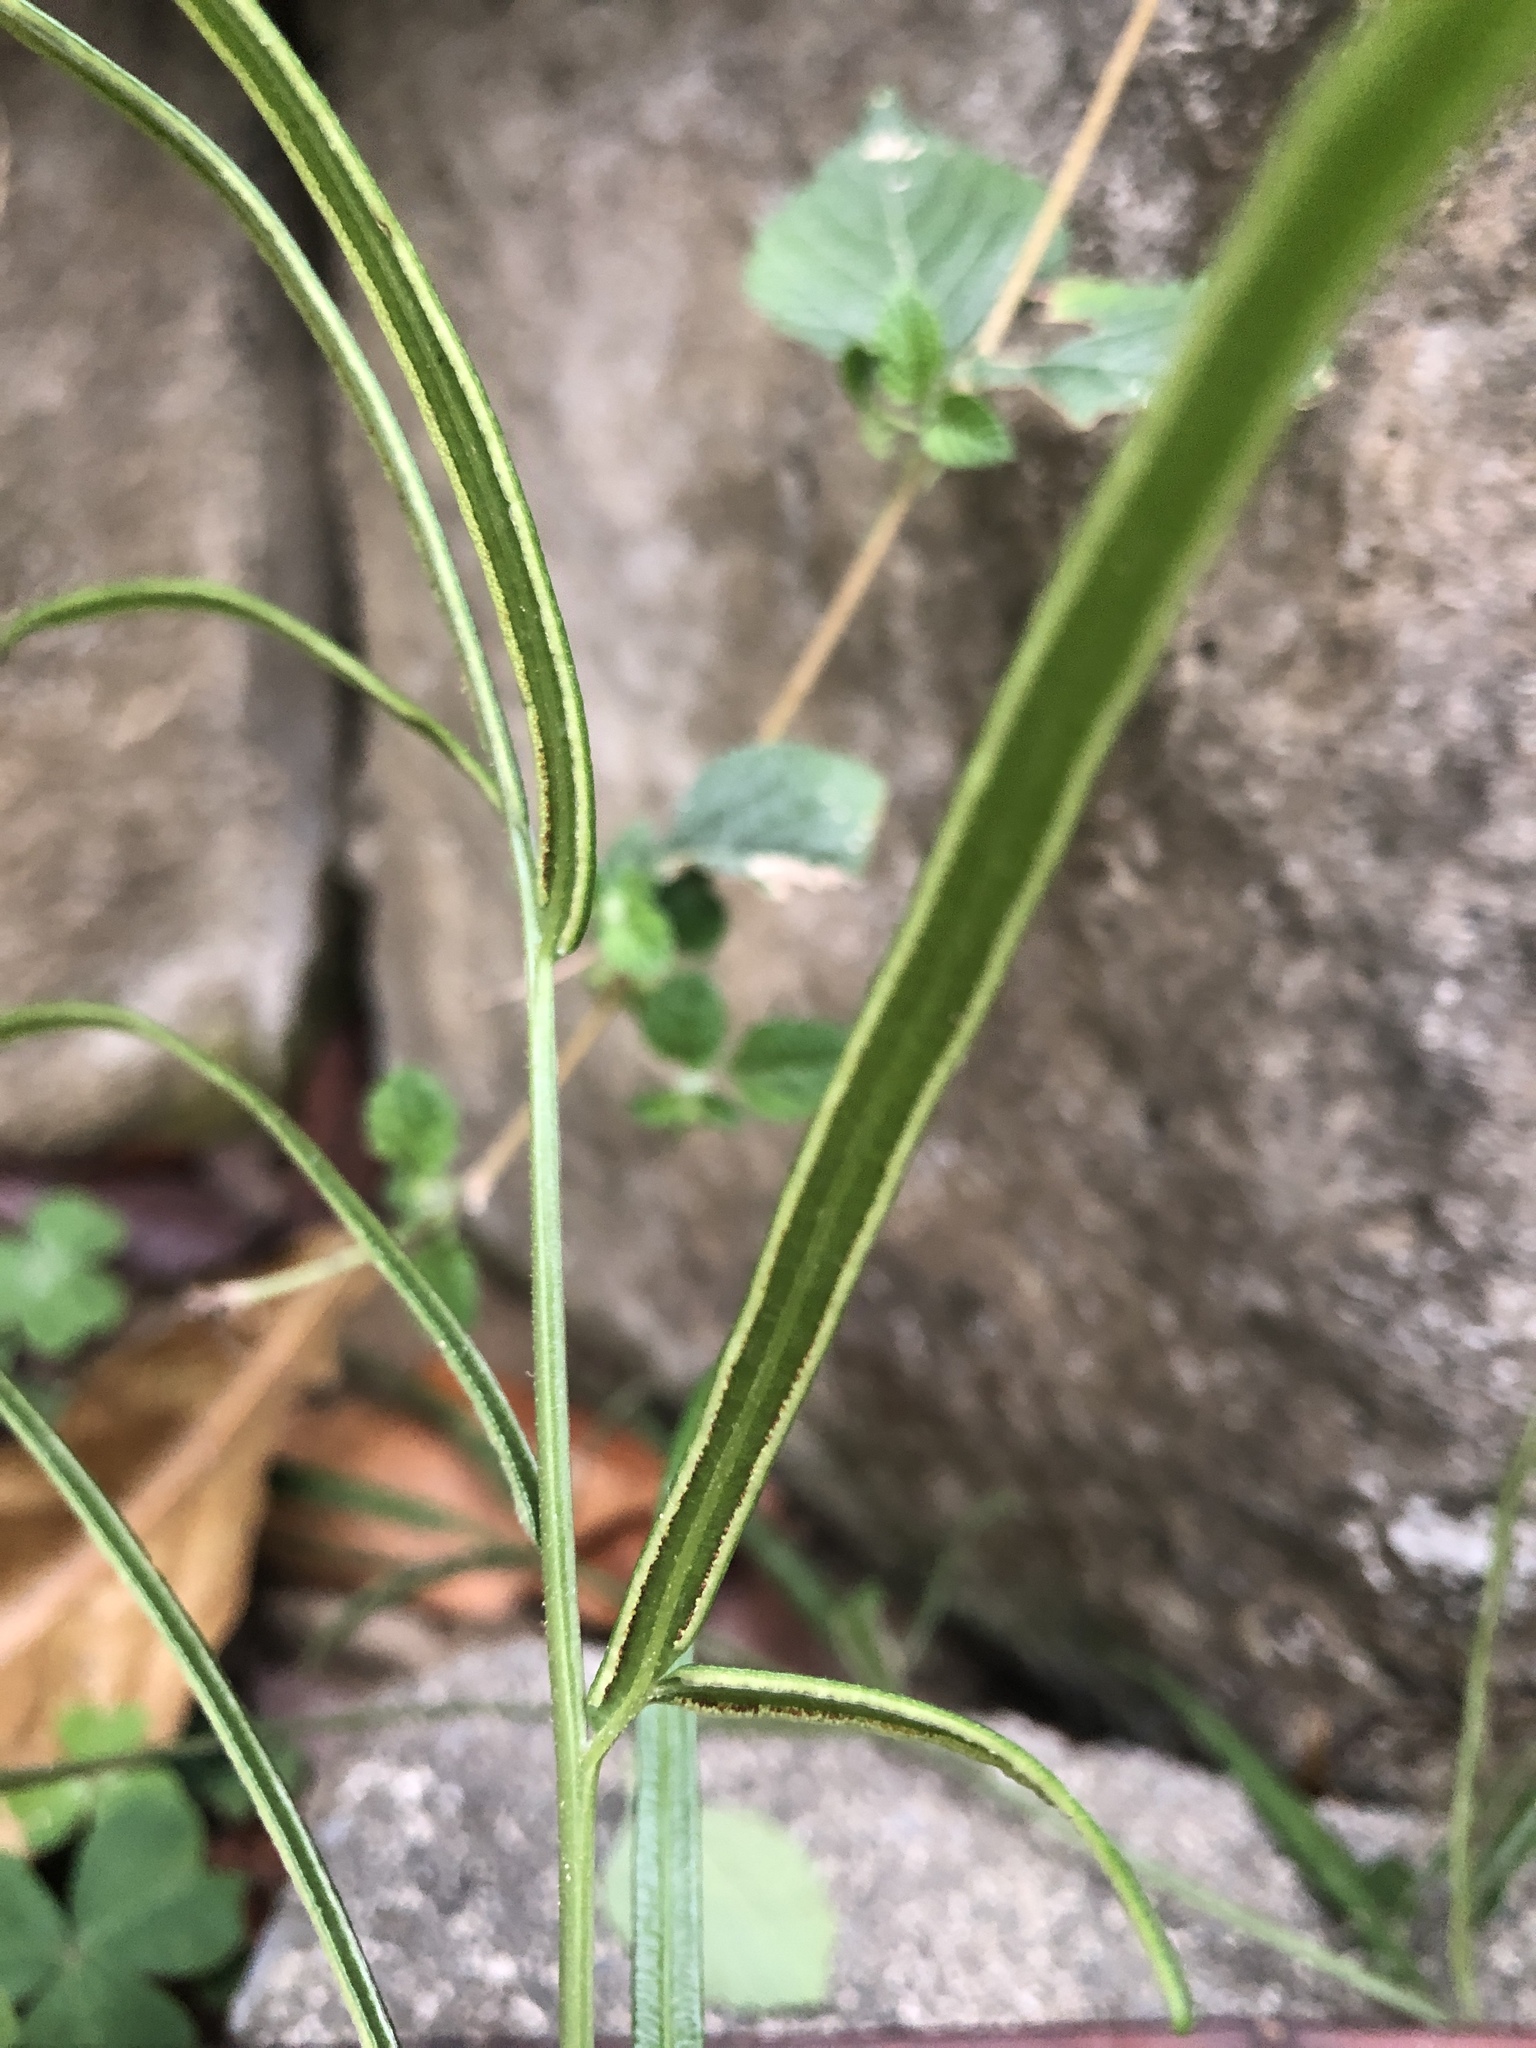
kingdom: Plantae
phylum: Tracheophyta
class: Polypodiopsida
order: Polypodiales
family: Pteridaceae
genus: Pteris
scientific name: Pteris ensiformis
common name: Sword brake
